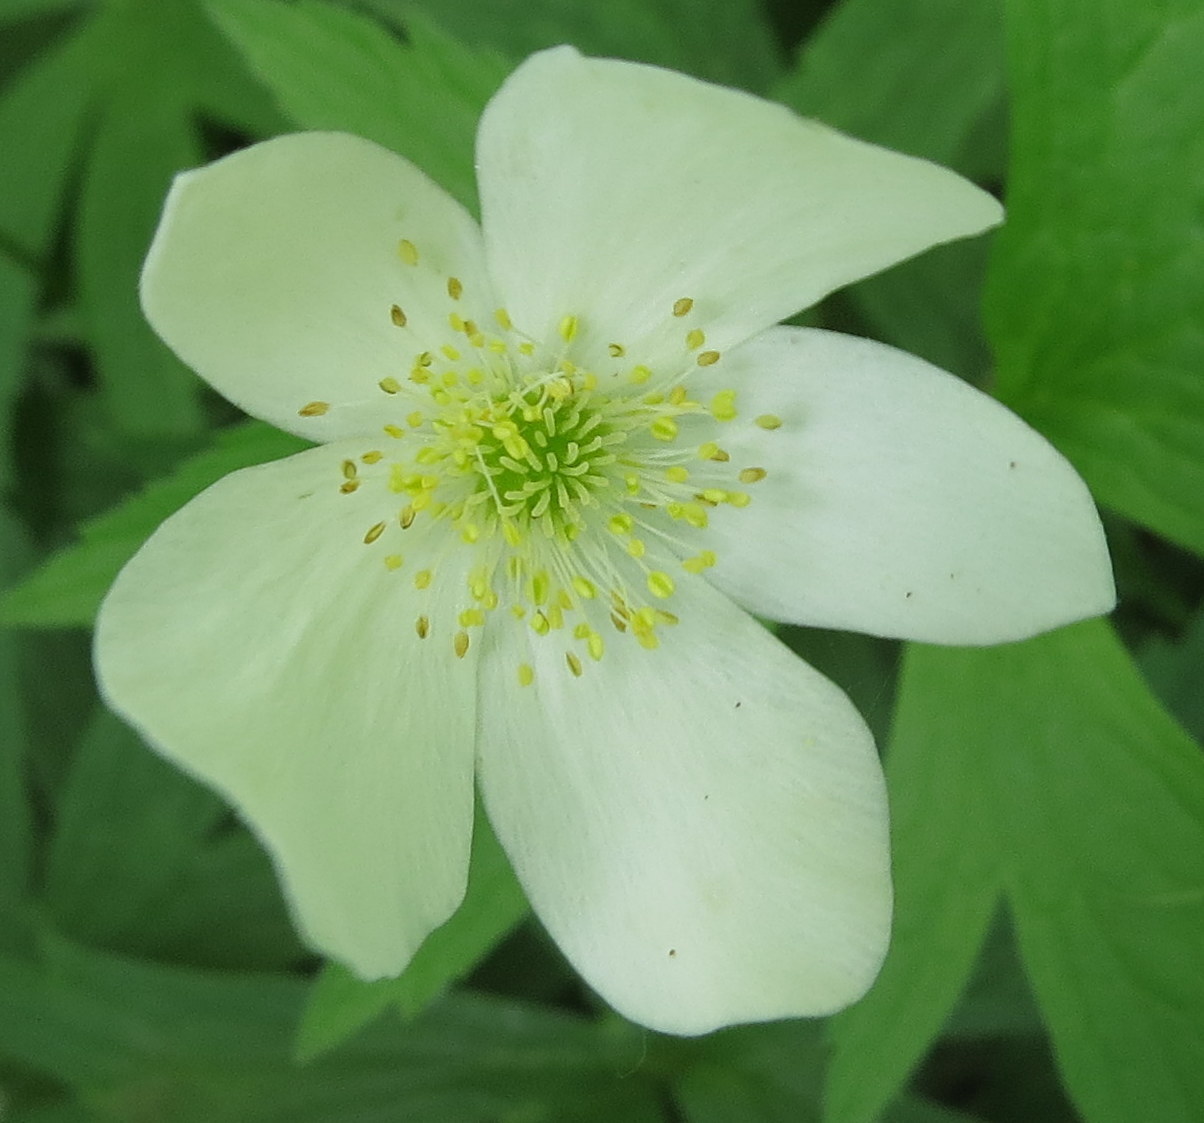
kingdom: Plantae
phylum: Tracheophyta
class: Magnoliopsida
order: Ranunculales
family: Ranunculaceae
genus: Anemonastrum
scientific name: Anemonastrum canadense
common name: Canada anemone
